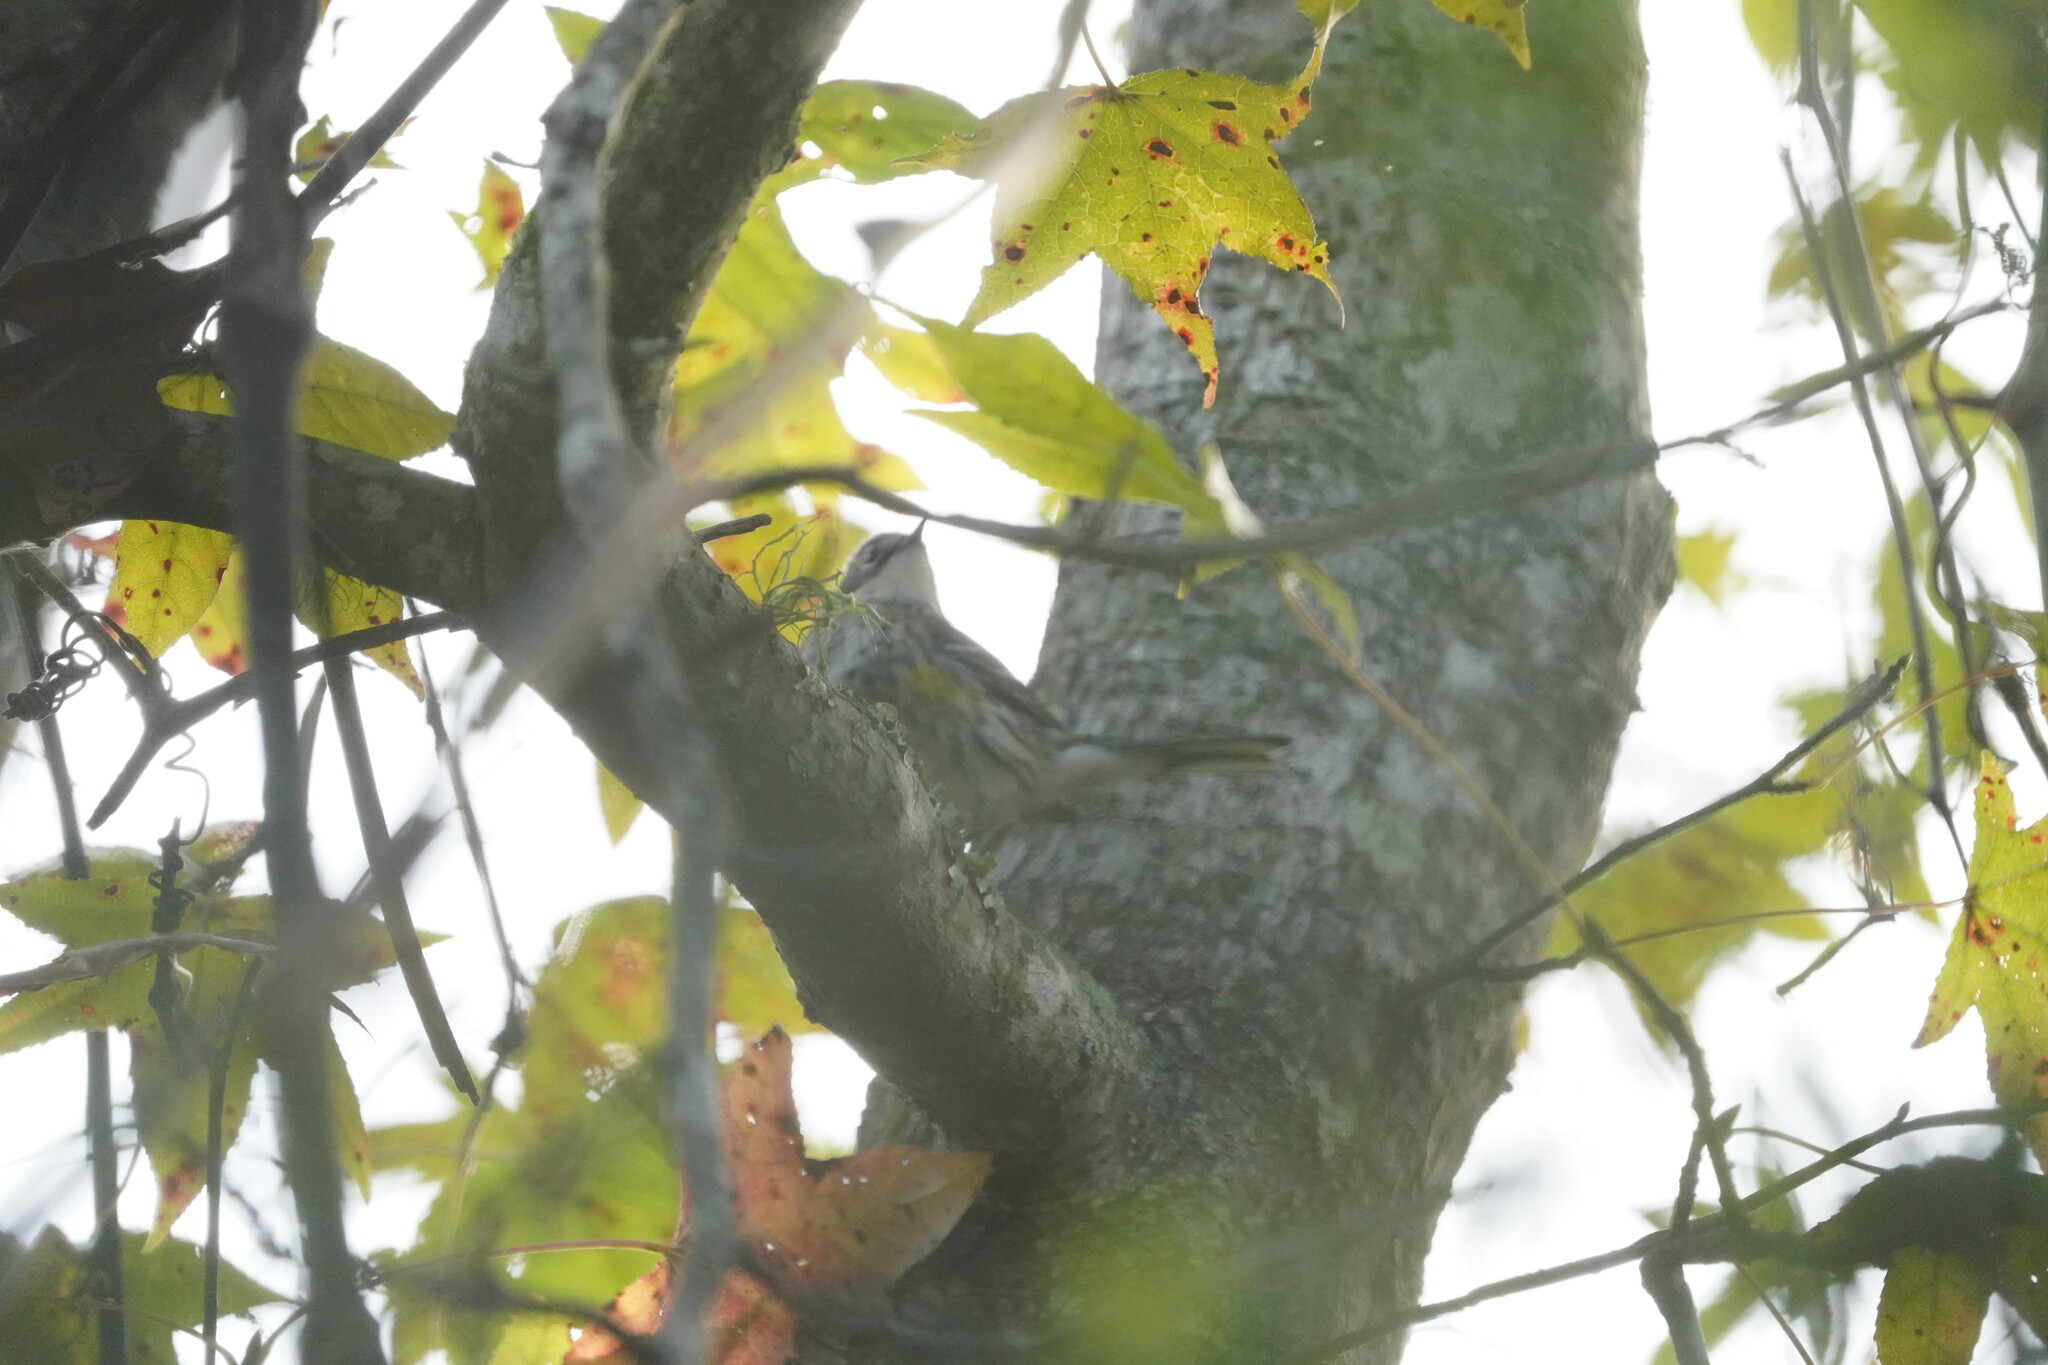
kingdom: Animalia
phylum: Chordata
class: Aves
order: Passeriformes
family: Parulidae
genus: Setophaga
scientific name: Setophaga coronata
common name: Myrtle warbler
